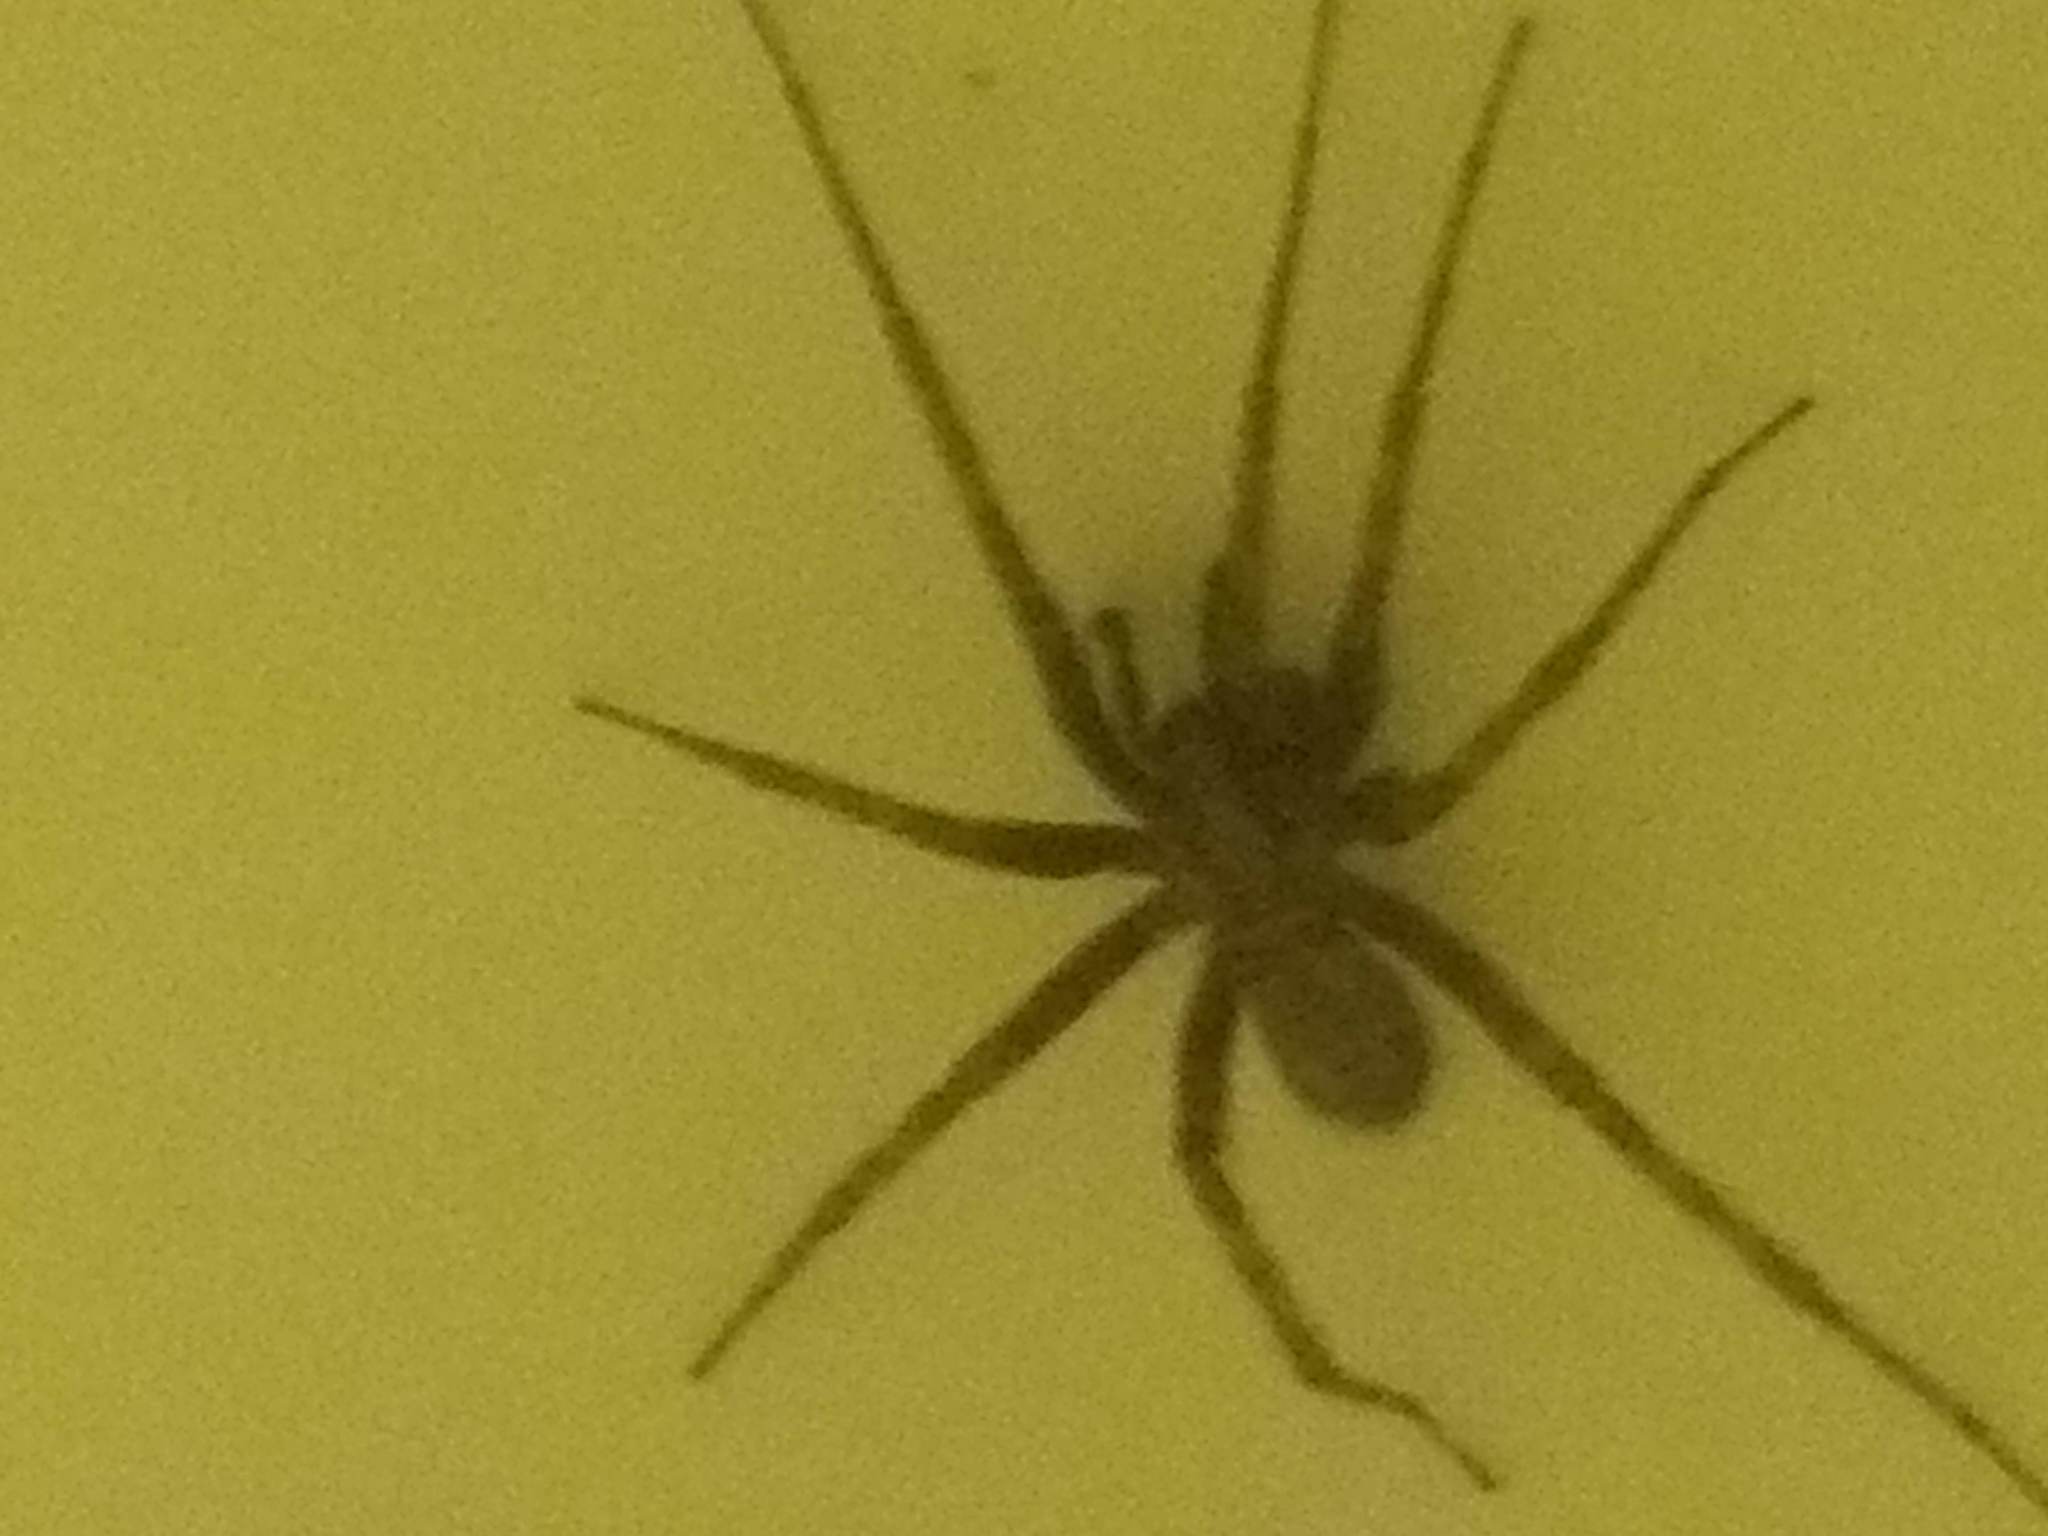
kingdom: Animalia
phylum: Arthropoda
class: Arachnida
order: Araneae
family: Agelenidae
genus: Tegenaria
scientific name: Tegenaria domestica
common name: Barn funnel weaver
